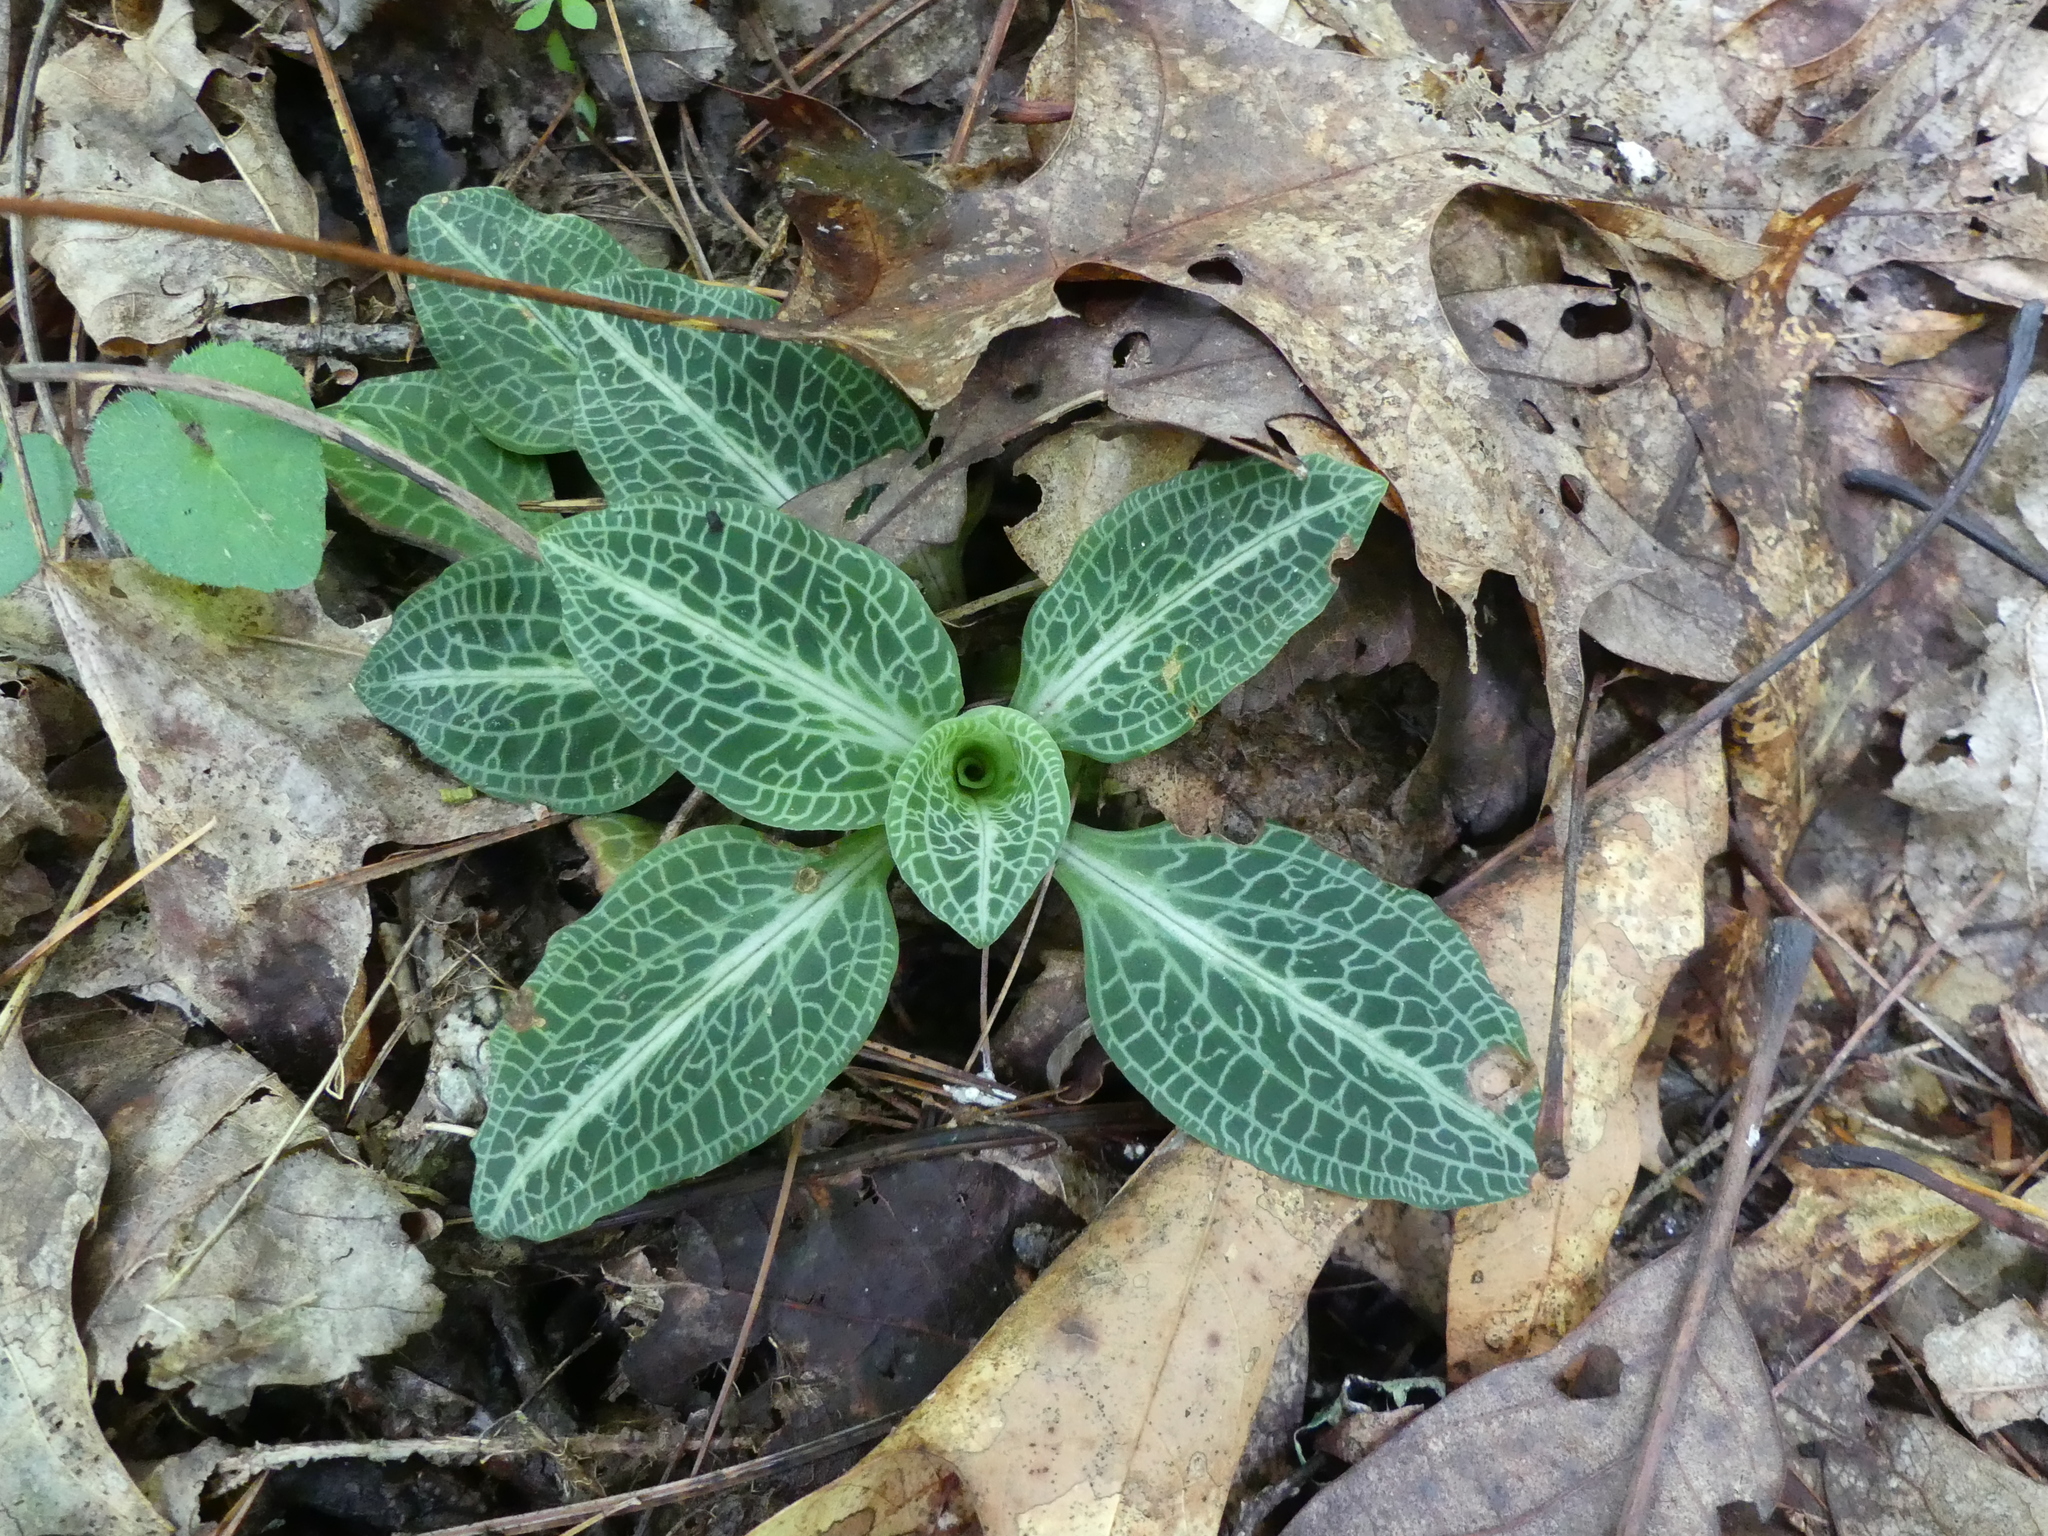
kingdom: Plantae
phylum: Tracheophyta
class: Liliopsida
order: Asparagales
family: Orchidaceae
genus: Goodyera
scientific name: Goodyera pubescens
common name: Downy rattlesnake-plantain
